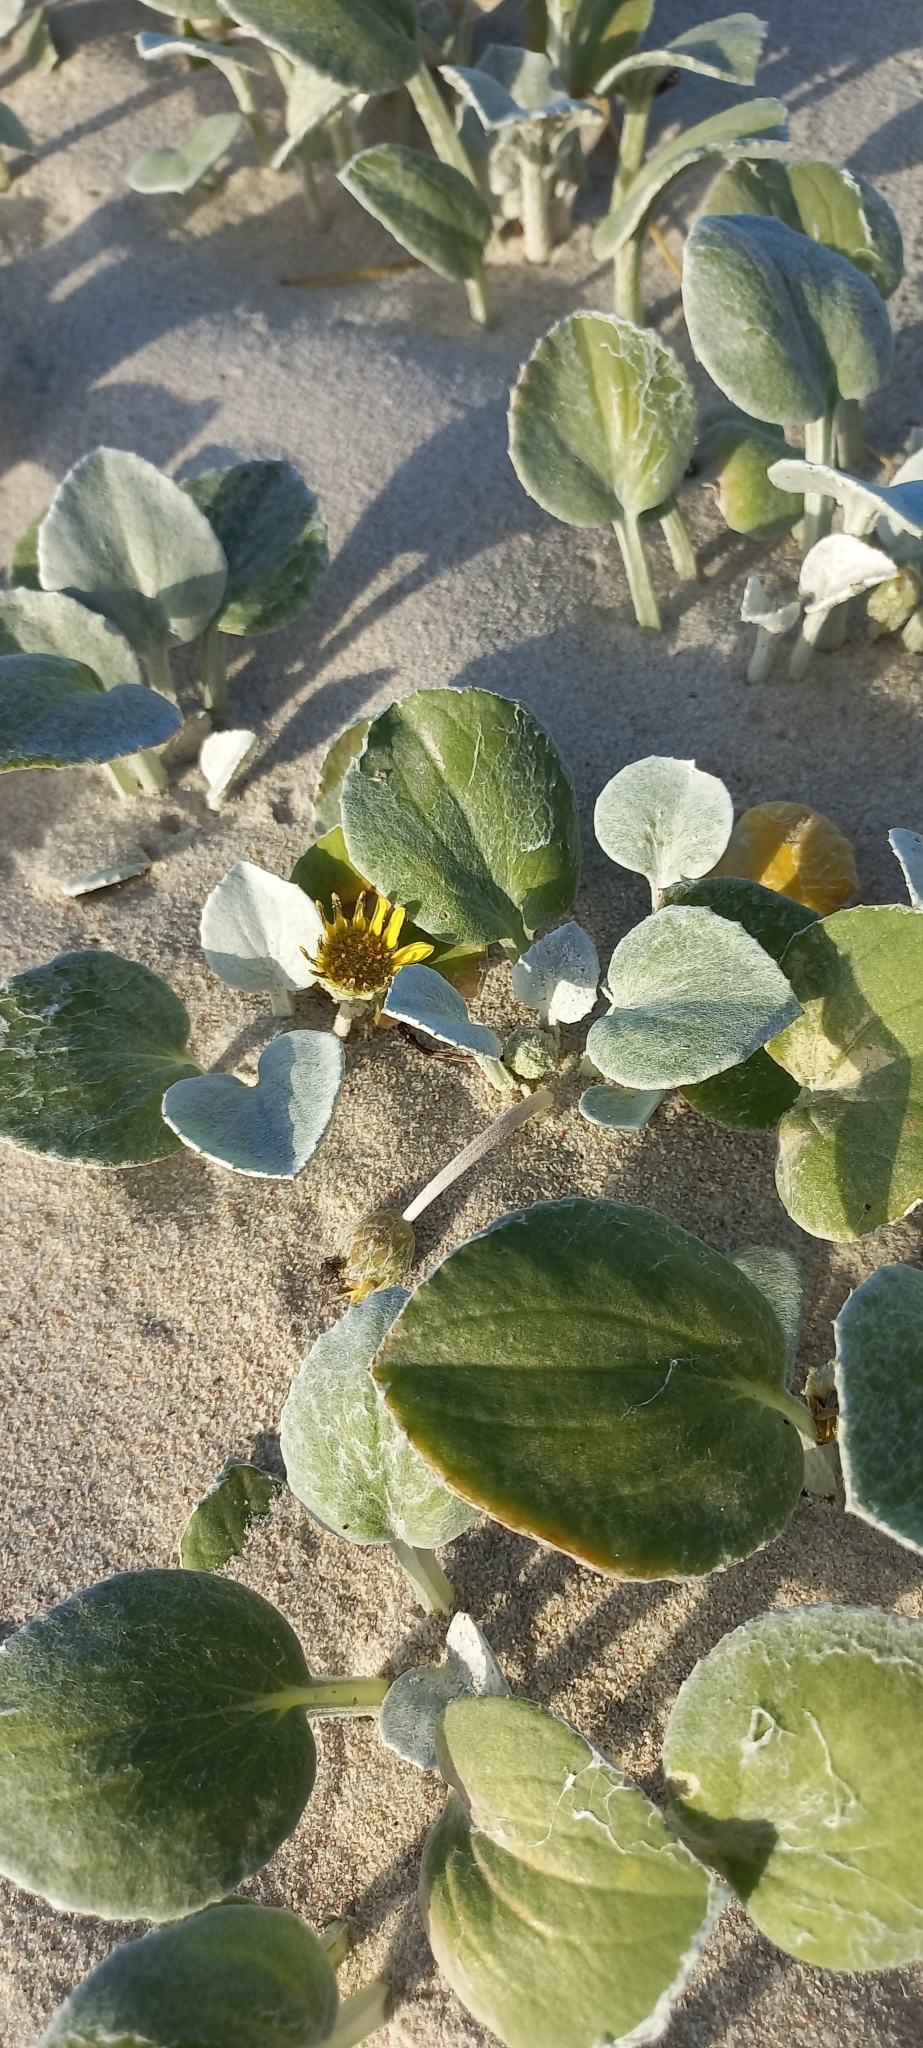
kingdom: Plantae
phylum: Tracheophyta
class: Magnoliopsida
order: Asterales
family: Asteraceae
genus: Arctotheca
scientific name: Arctotheca populifolia
